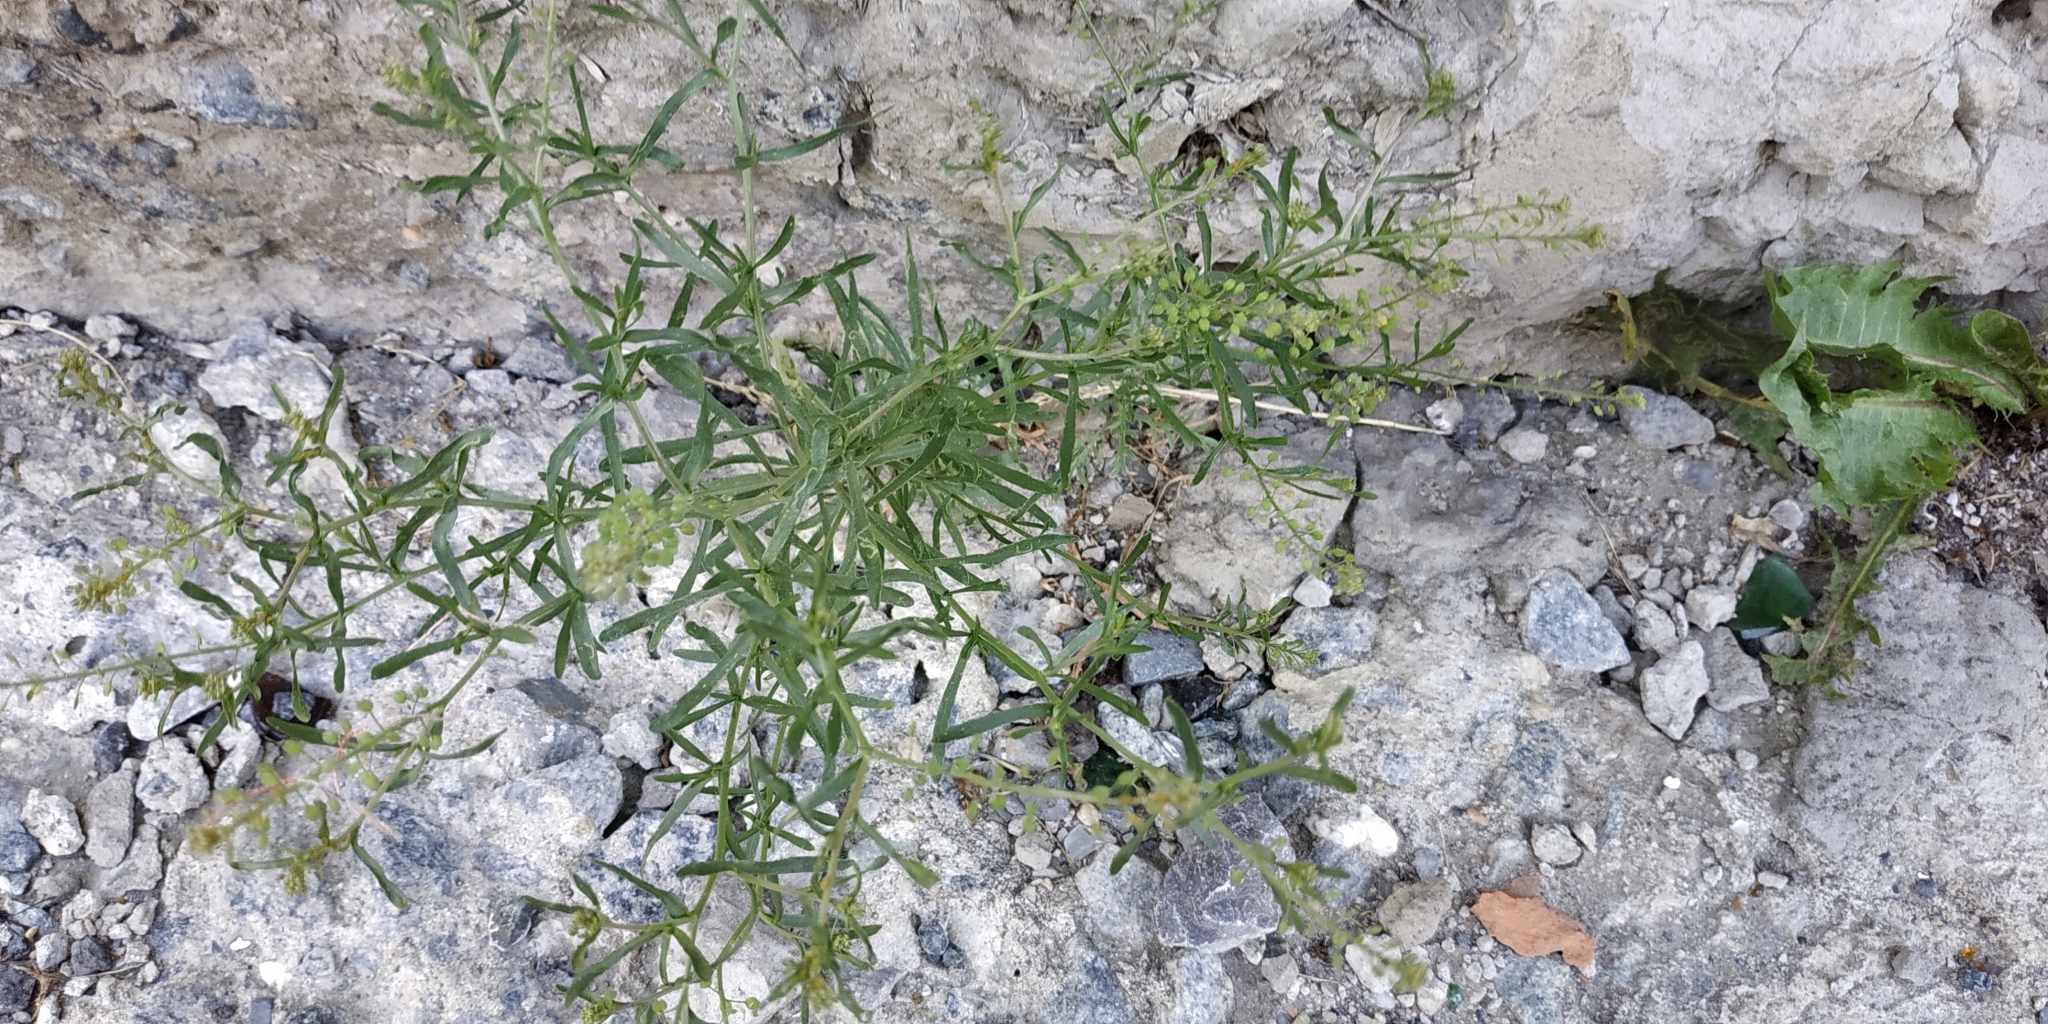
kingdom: Plantae
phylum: Tracheophyta
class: Magnoliopsida
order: Brassicales
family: Brassicaceae
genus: Lepidium
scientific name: Lepidium ruderale
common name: Narrow-leaved pepperwort
